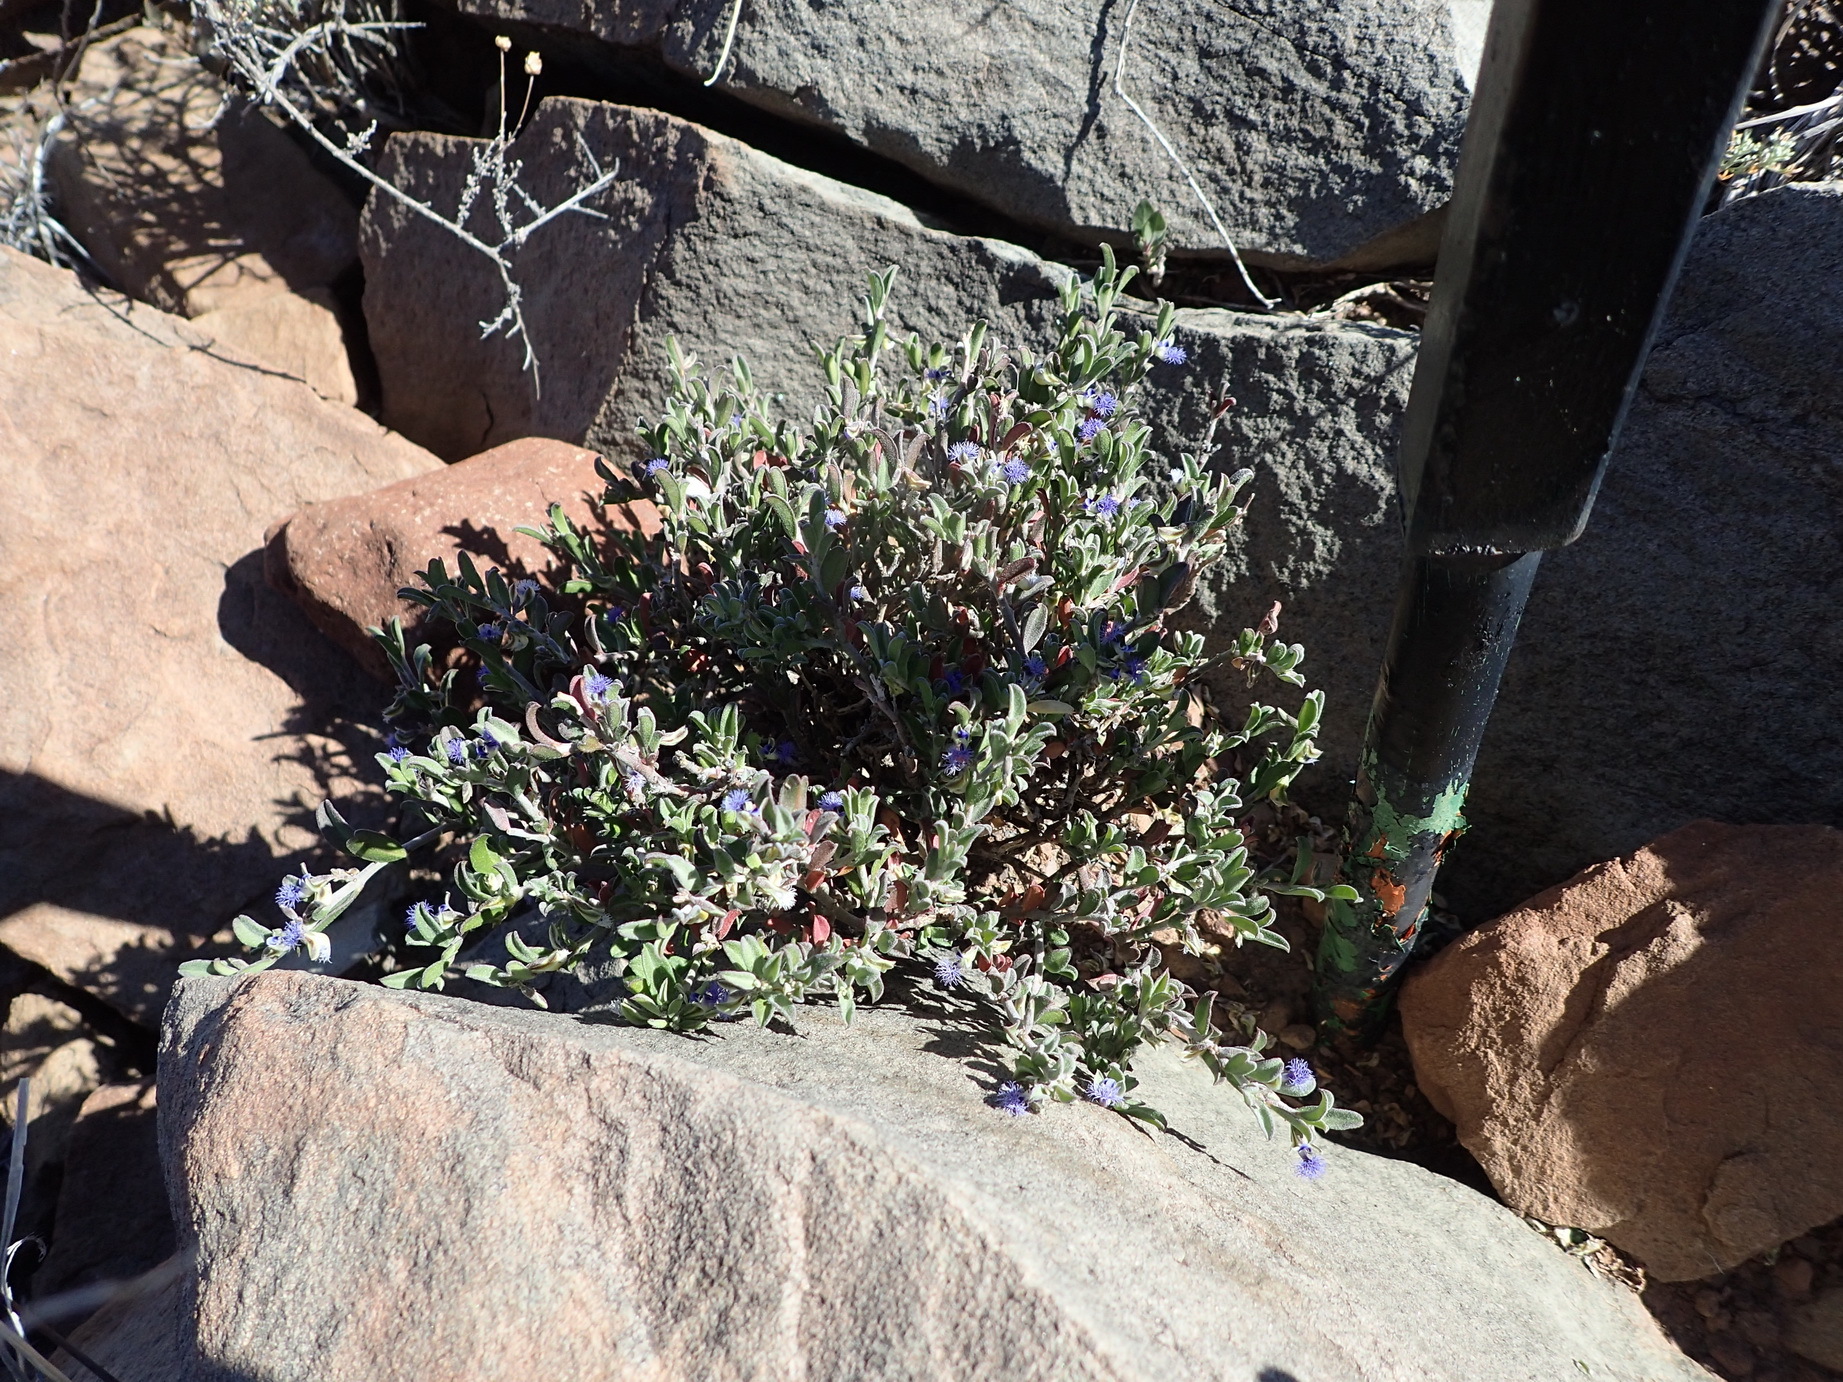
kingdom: Plantae
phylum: Tracheophyta
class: Magnoliopsida
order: Fabales
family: Polygalaceae
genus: Polygala
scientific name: Polygala asbestina
